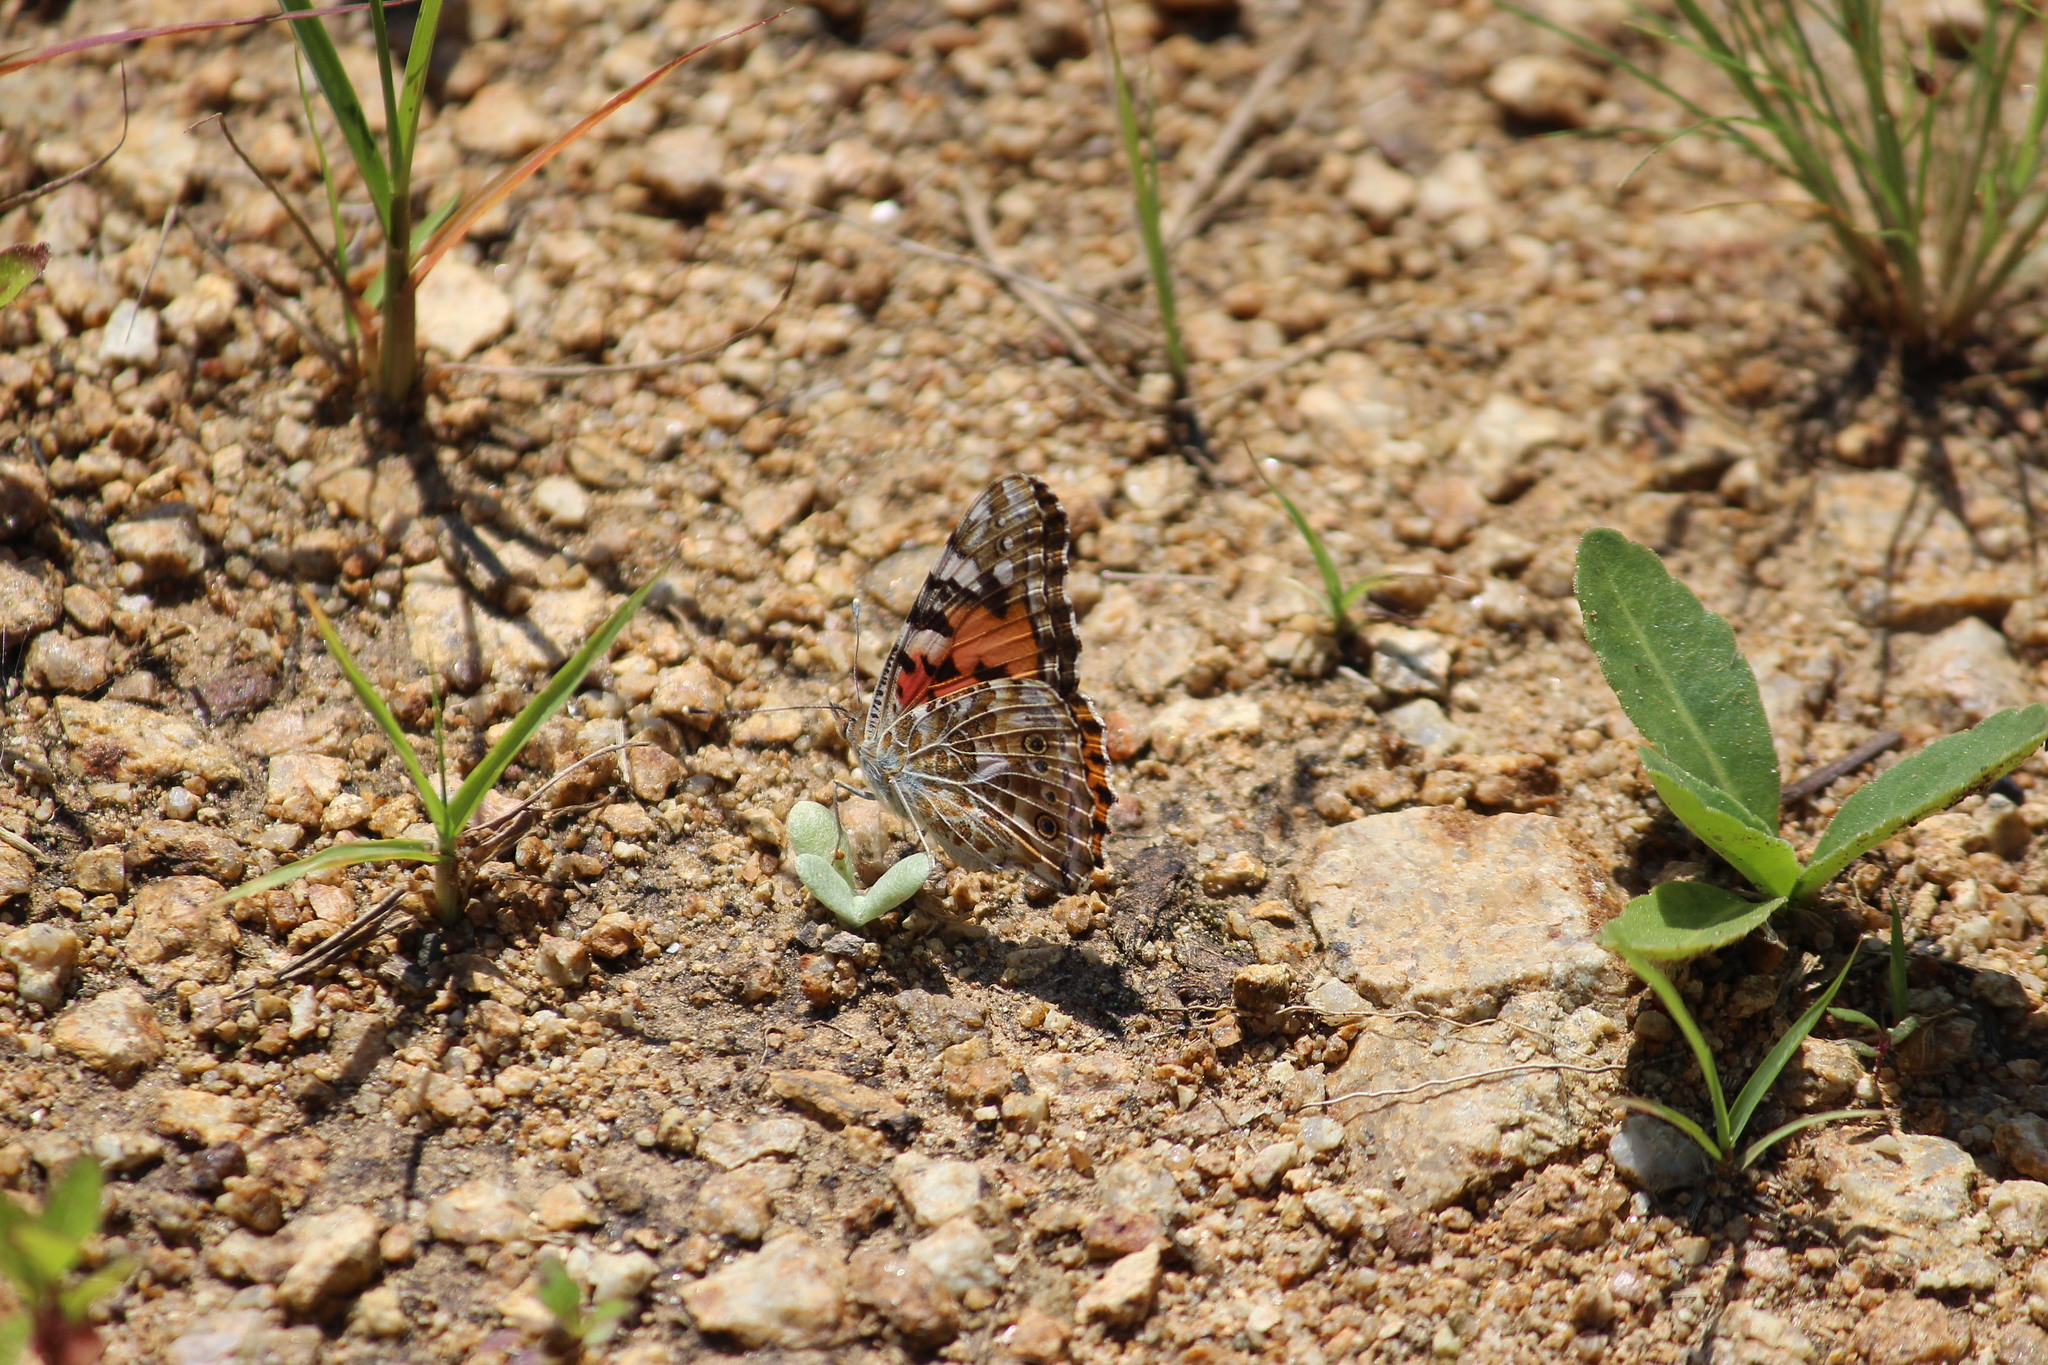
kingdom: Animalia
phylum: Arthropoda
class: Insecta
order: Lepidoptera
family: Nymphalidae
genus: Vanessa
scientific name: Vanessa cardui
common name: Painted lady
